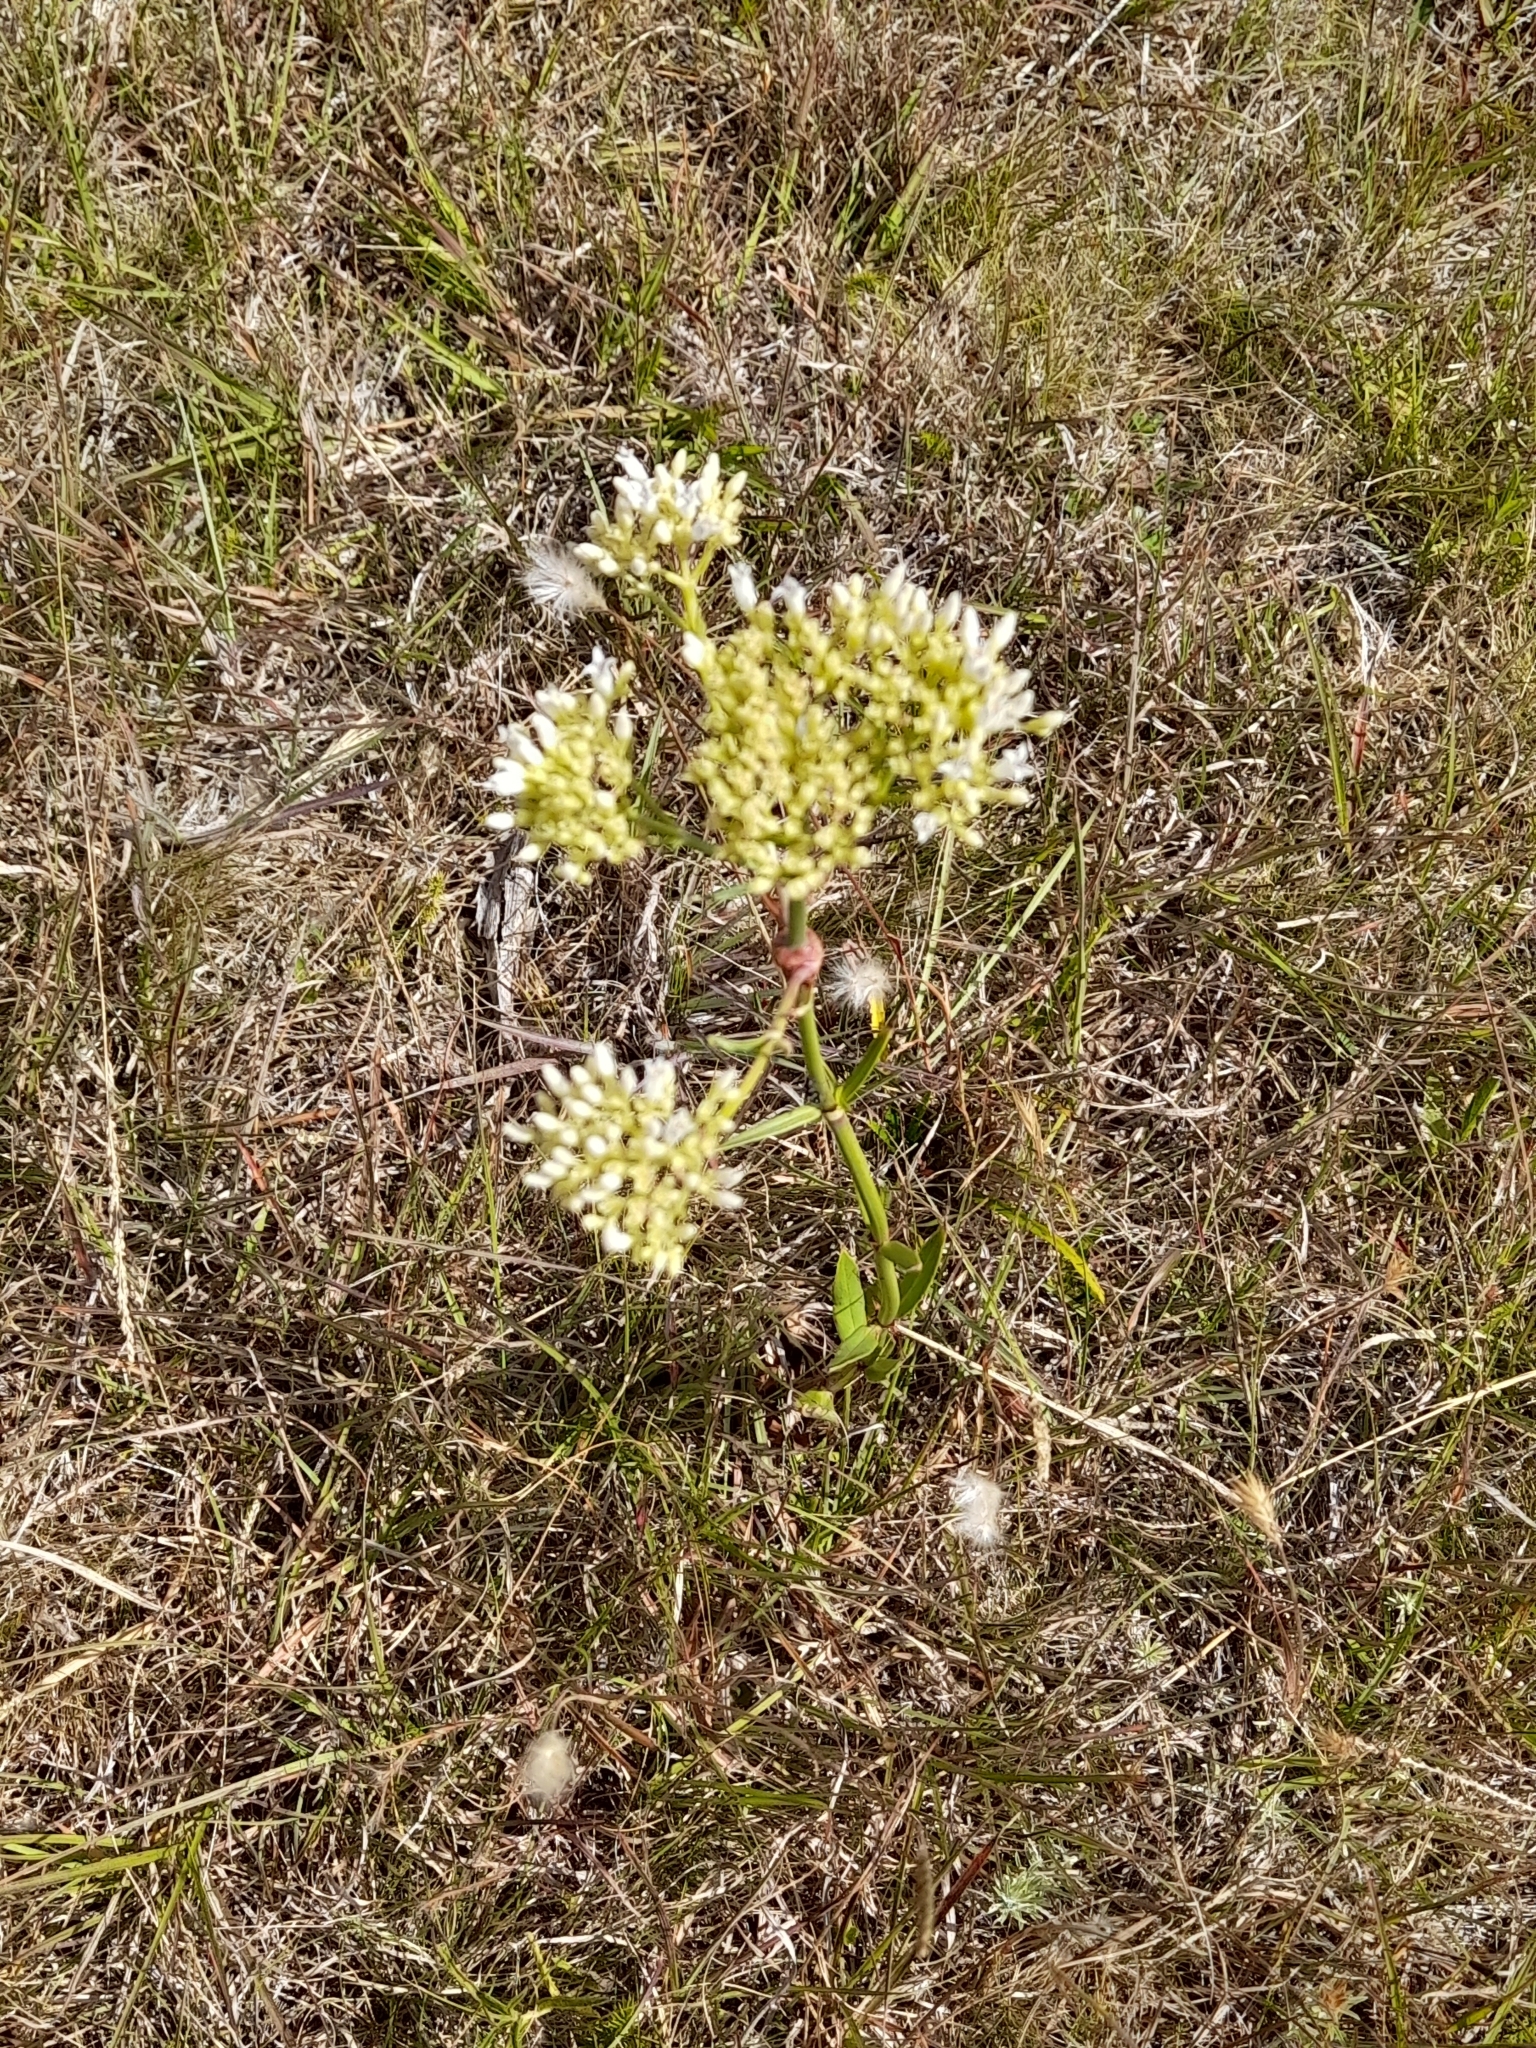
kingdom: Plantae
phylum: Tracheophyta
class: Magnoliopsida
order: Gentianales
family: Rubiaceae
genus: Galianthe
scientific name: Galianthe fastigiata
